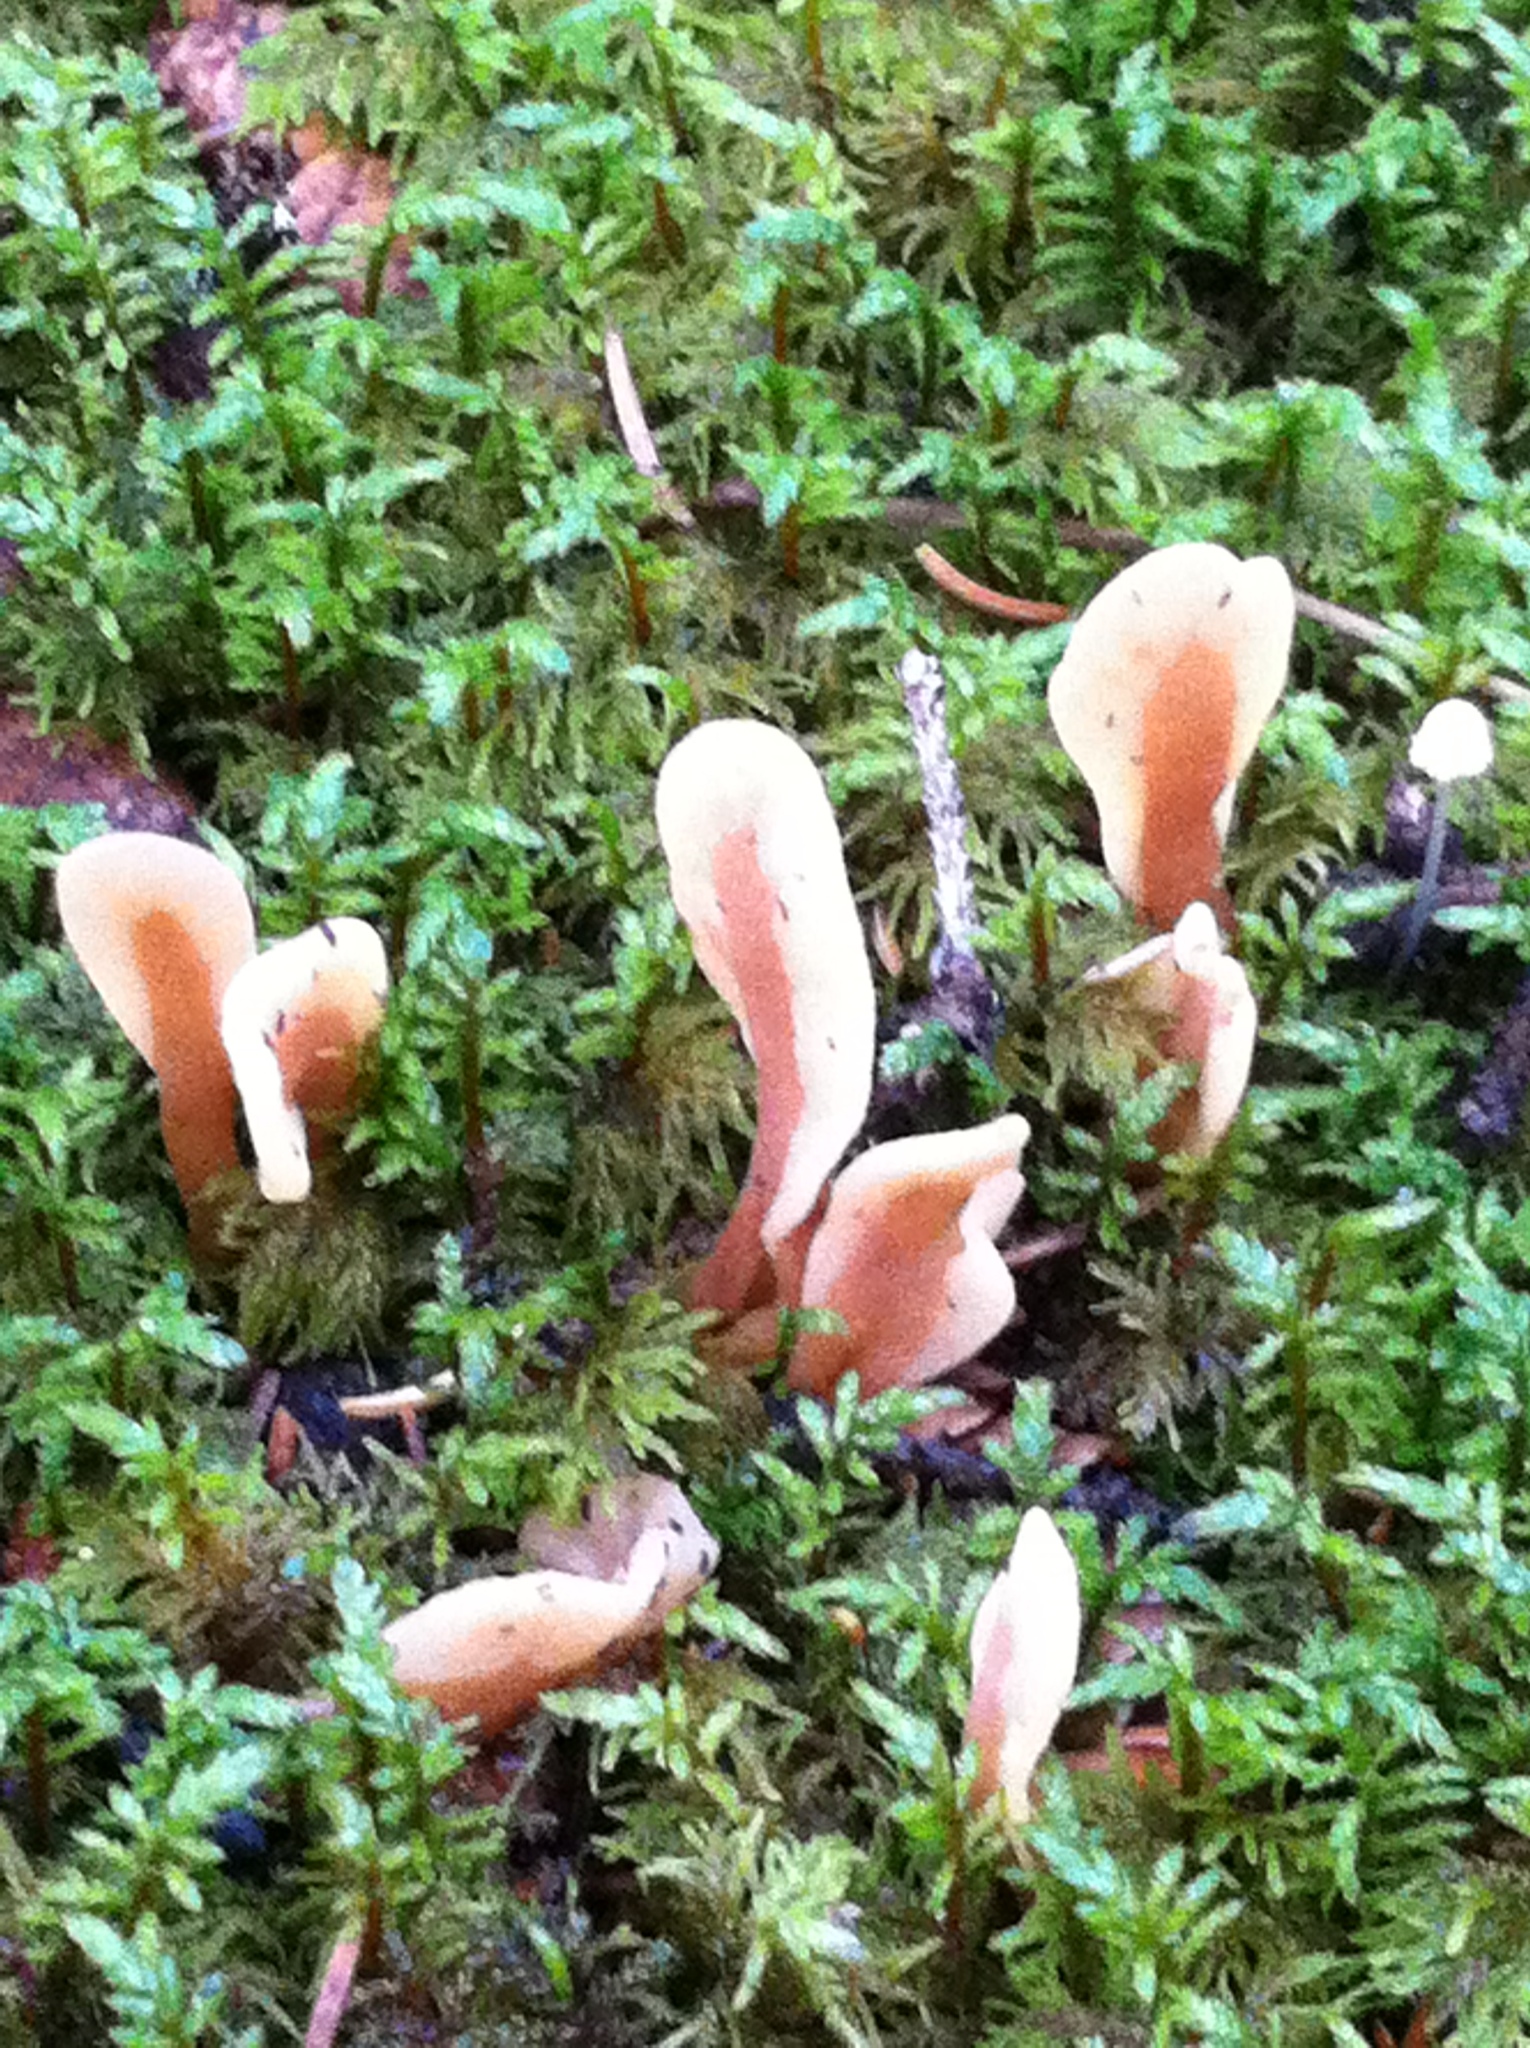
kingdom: Fungi
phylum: Ascomycota
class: Leotiomycetes
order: Rhytismatales
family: Cudoniaceae
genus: Spathulariopsis
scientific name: Spathulariopsis velutipes
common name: Velvet-foot fairy fan
